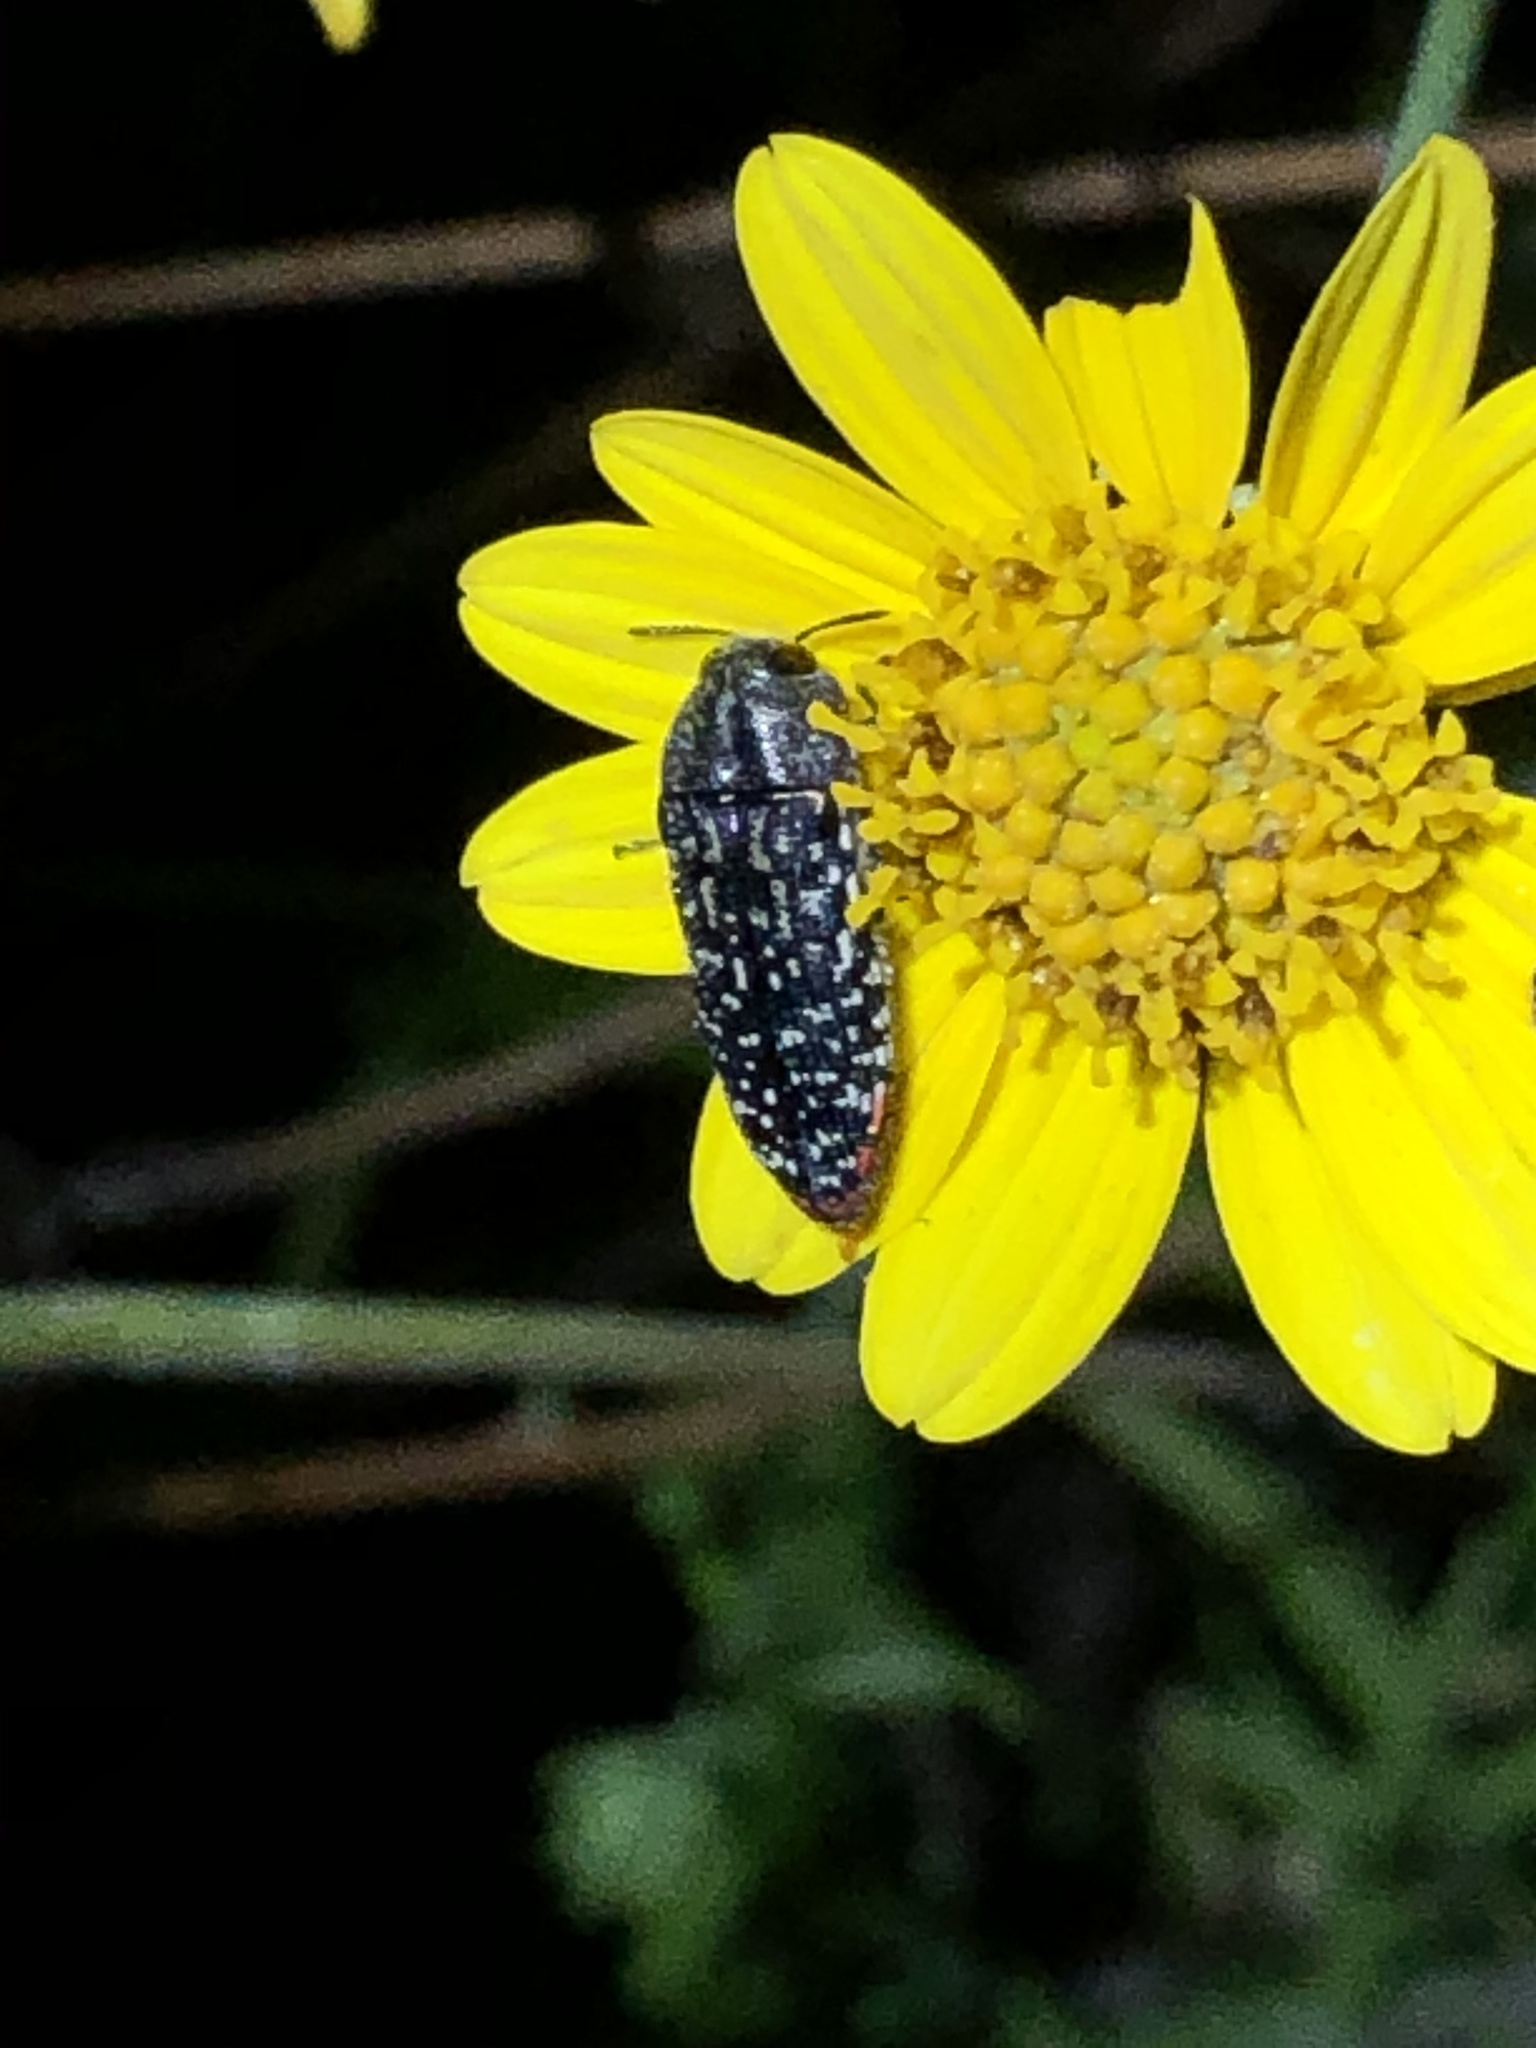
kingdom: Animalia
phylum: Arthropoda
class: Insecta
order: Coleoptera
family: Buprestidae
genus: Acmaeodera
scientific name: Acmaeodera haemorrhoa
